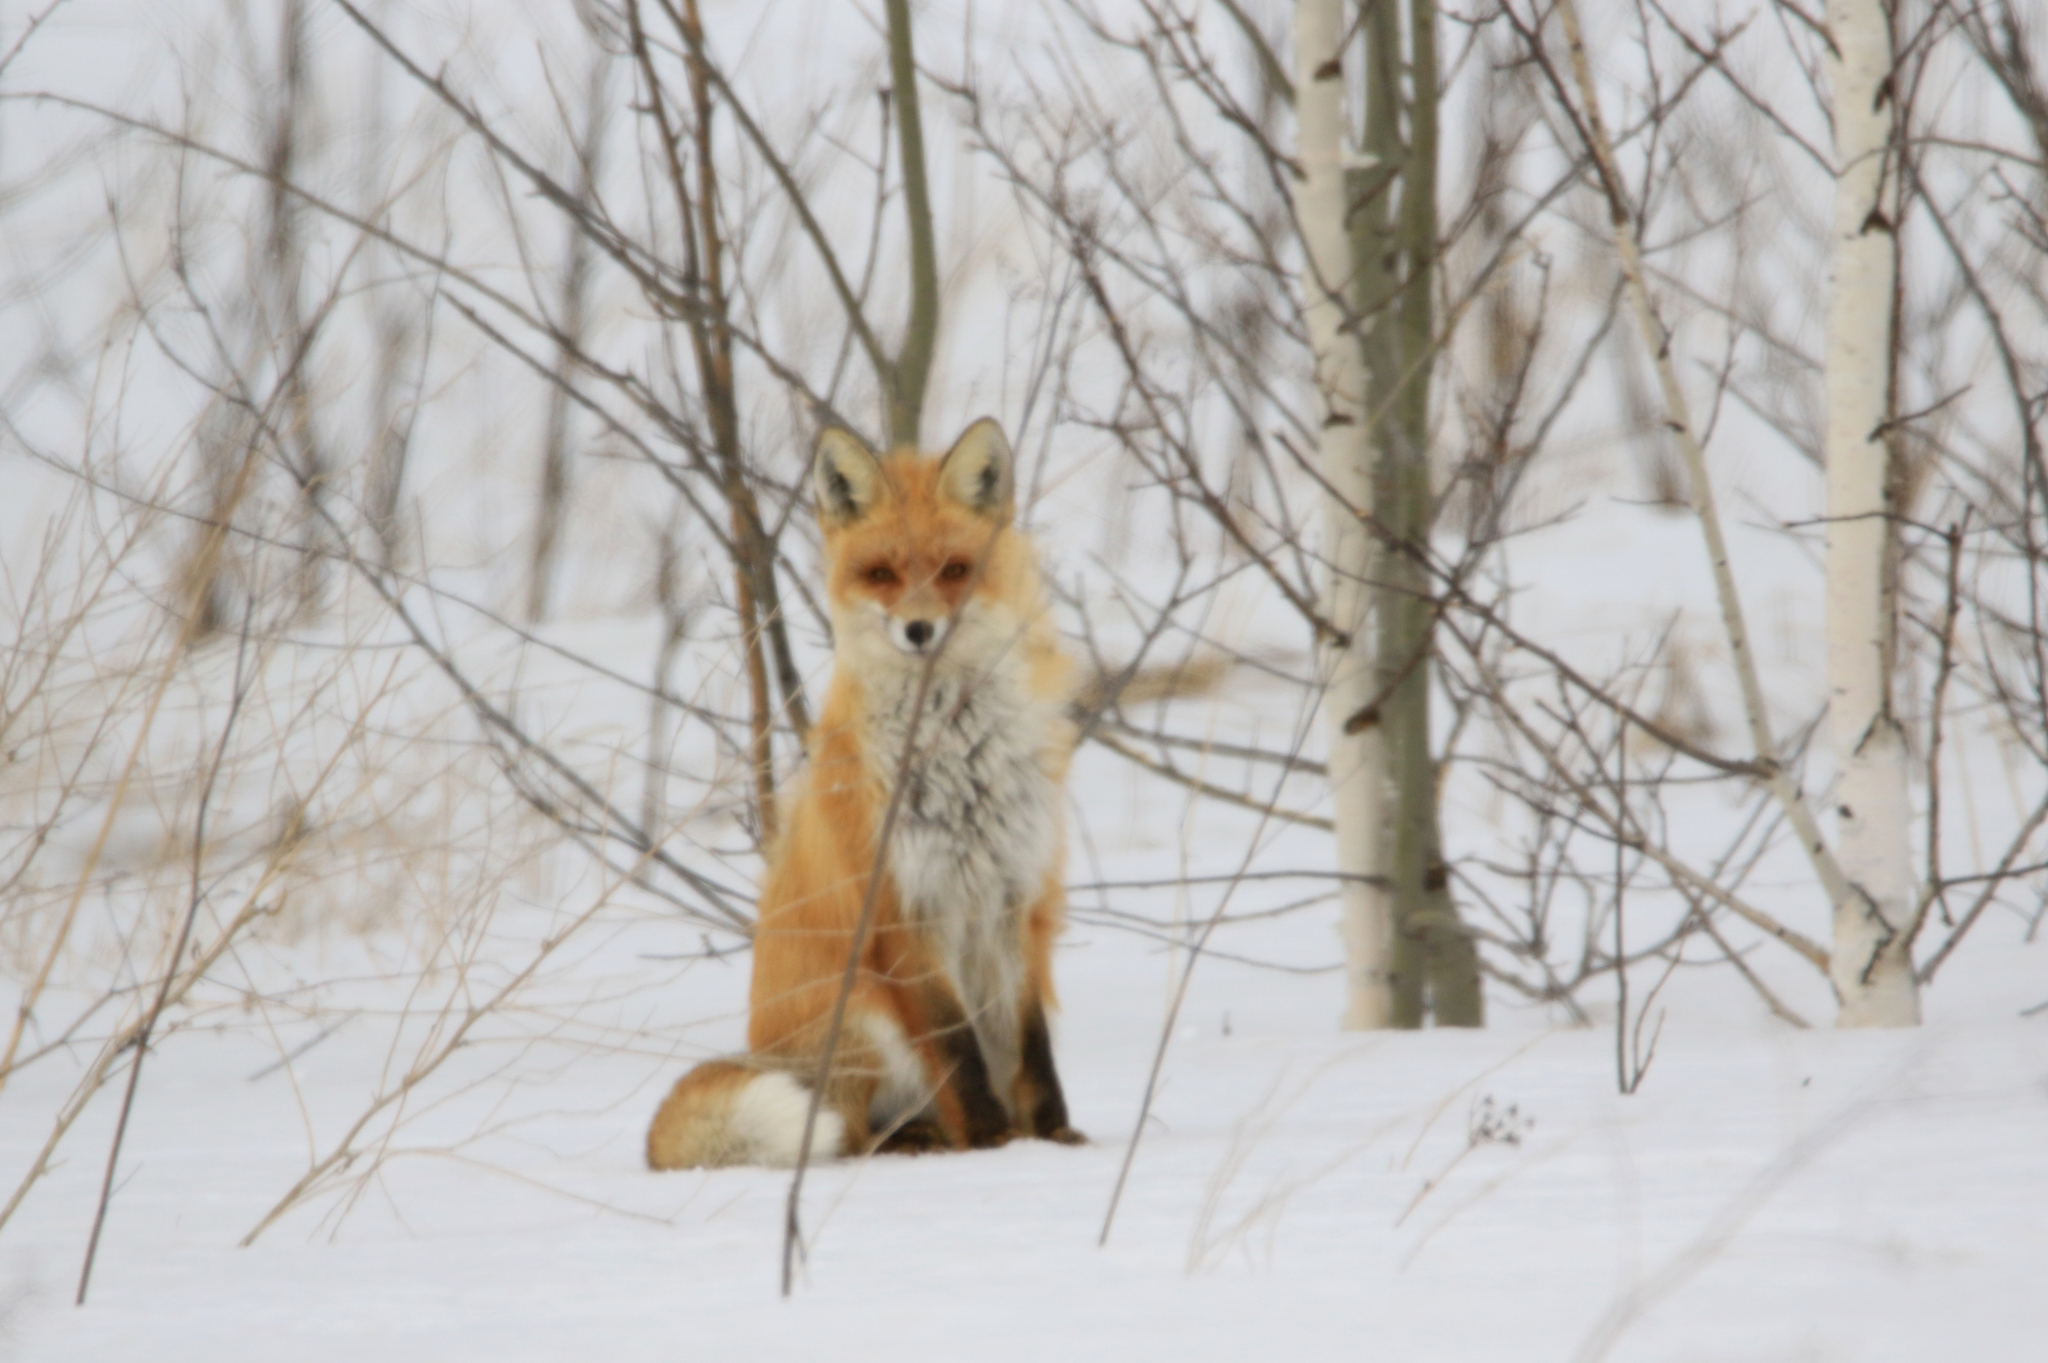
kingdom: Animalia
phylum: Chordata
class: Mammalia
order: Carnivora
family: Canidae
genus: Vulpes
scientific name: Vulpes vulpes
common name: Red fox
